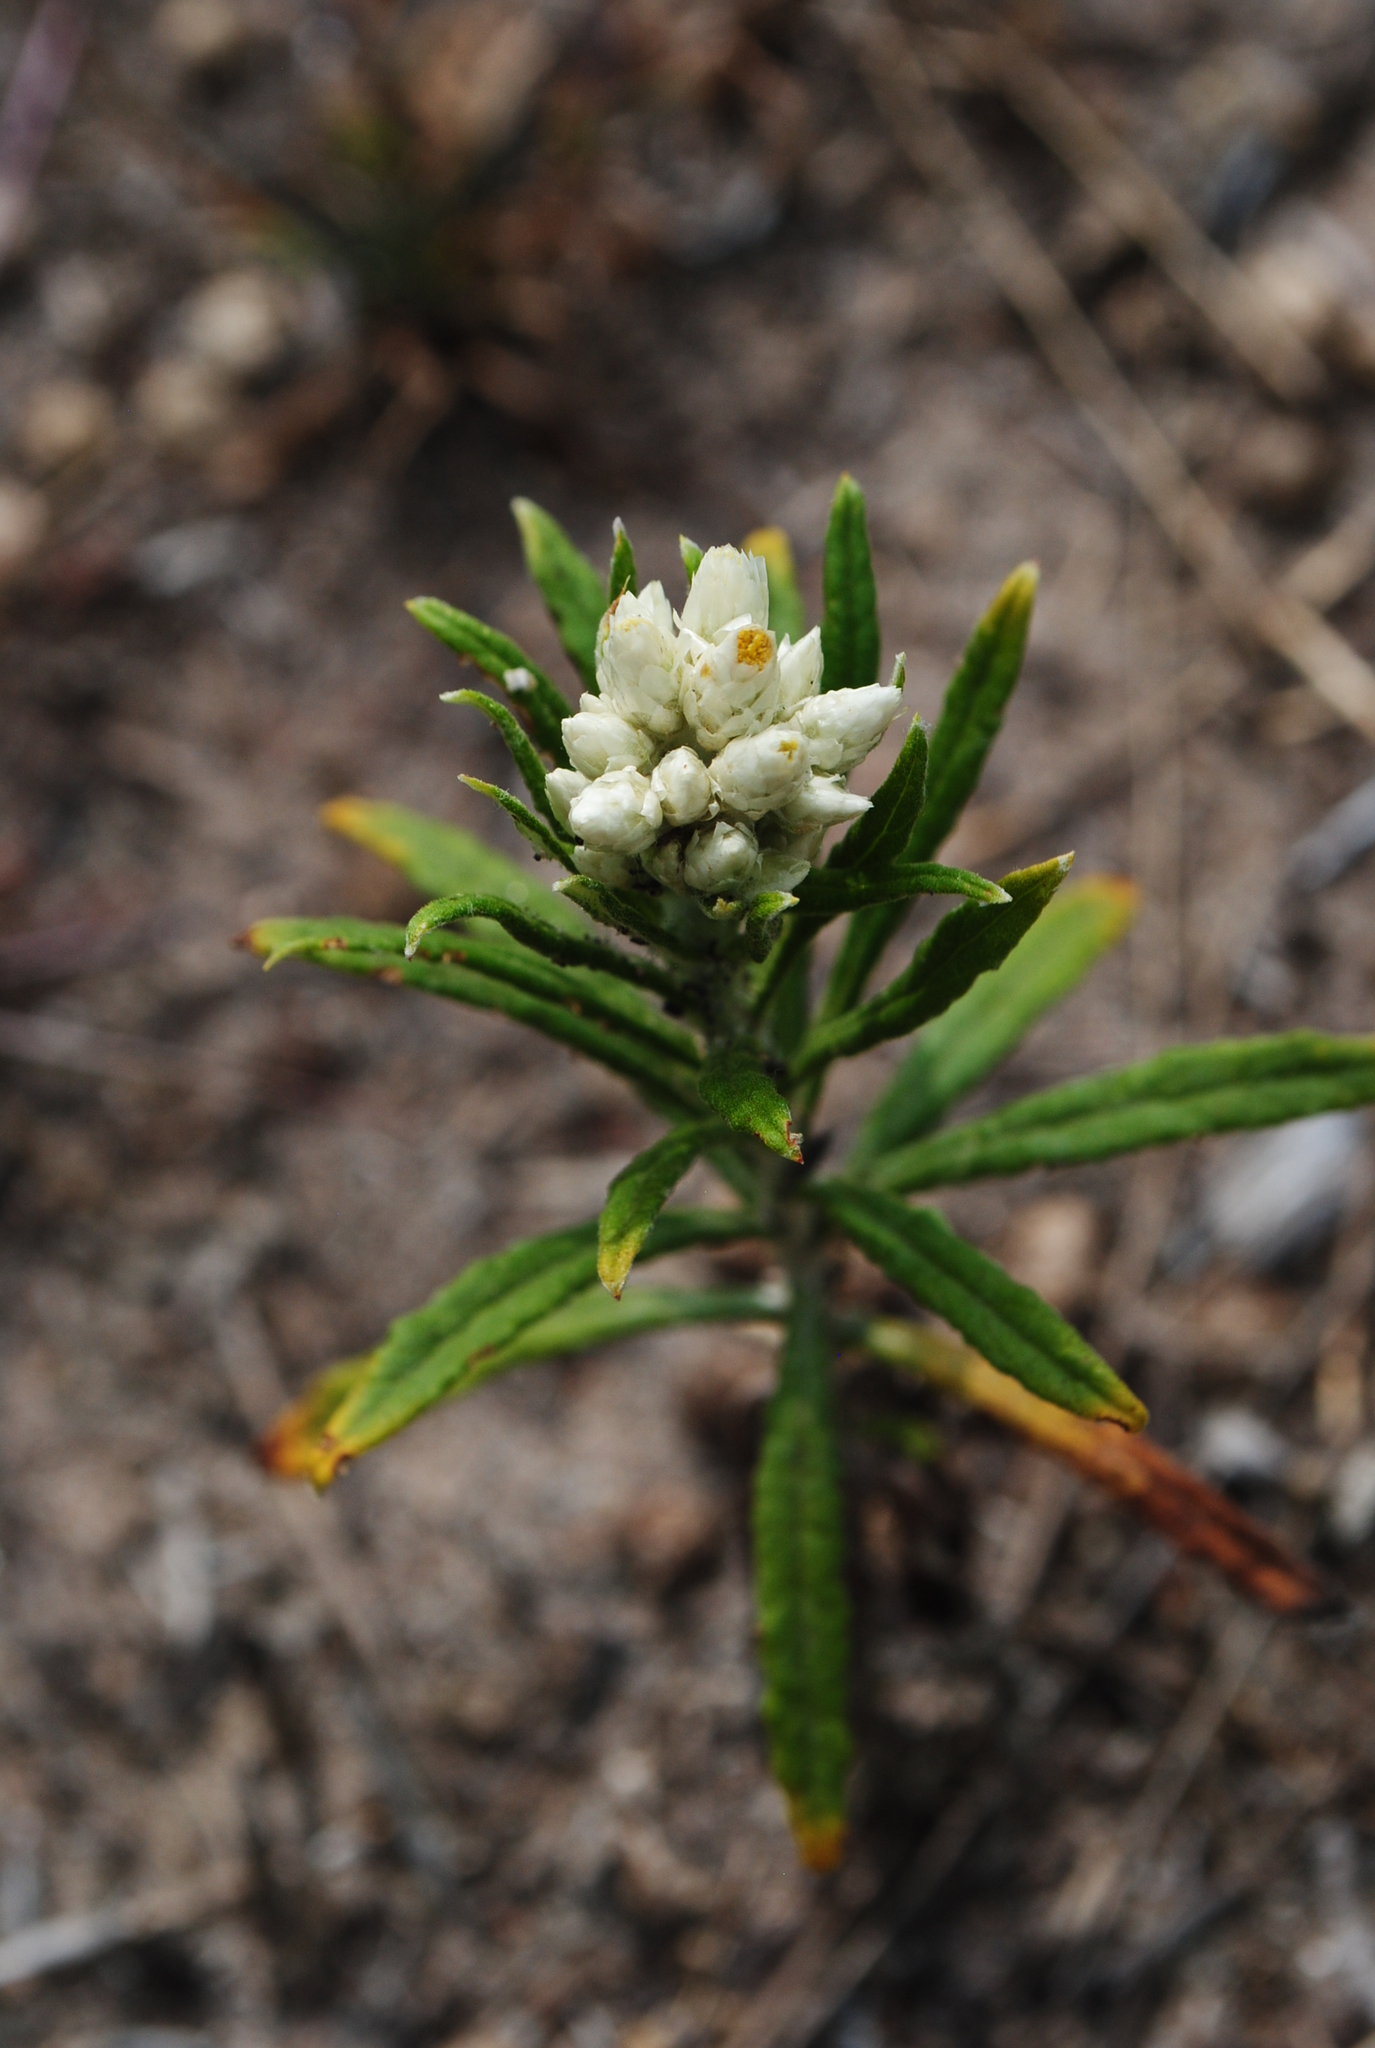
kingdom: Plantae
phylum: Tracheophyta
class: Magnoliopsida
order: Asterales
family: Asteraceae
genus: Pseudognaphalium
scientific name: Pseudognaphalium obtusifolium
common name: Eastern rabbit-tobacco
